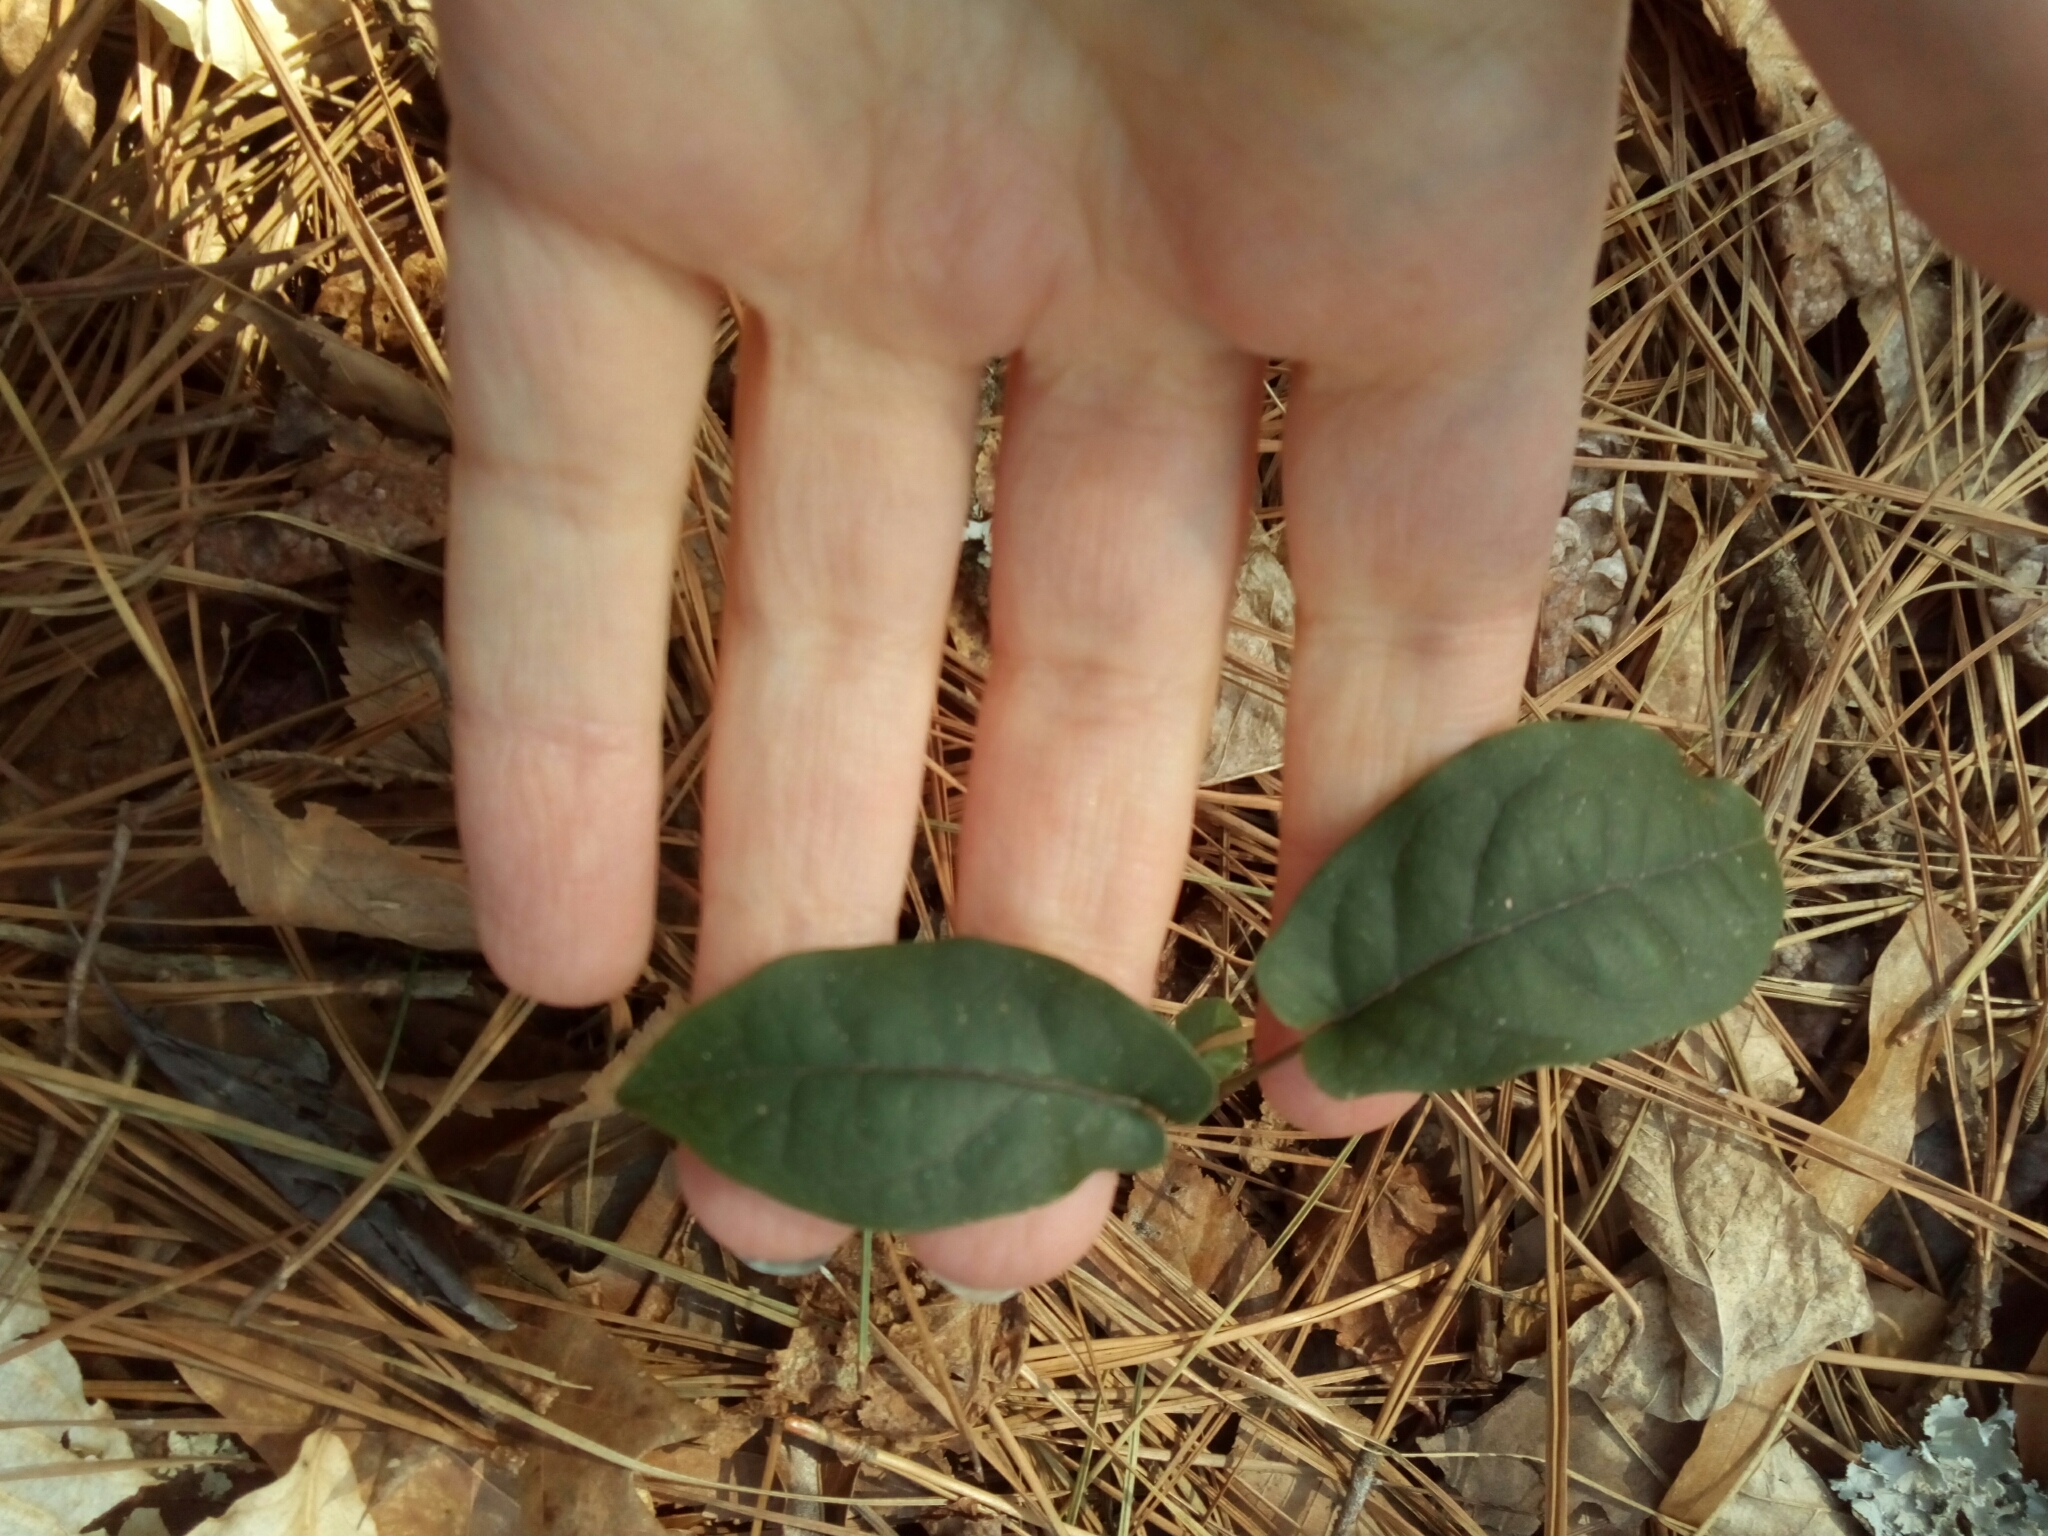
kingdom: Plantae
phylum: Tracheophyta
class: Magnoliopsida
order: Lamiales
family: Bignoniaceae
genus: Bignonia
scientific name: Bignonia capreolata
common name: Crossvine
